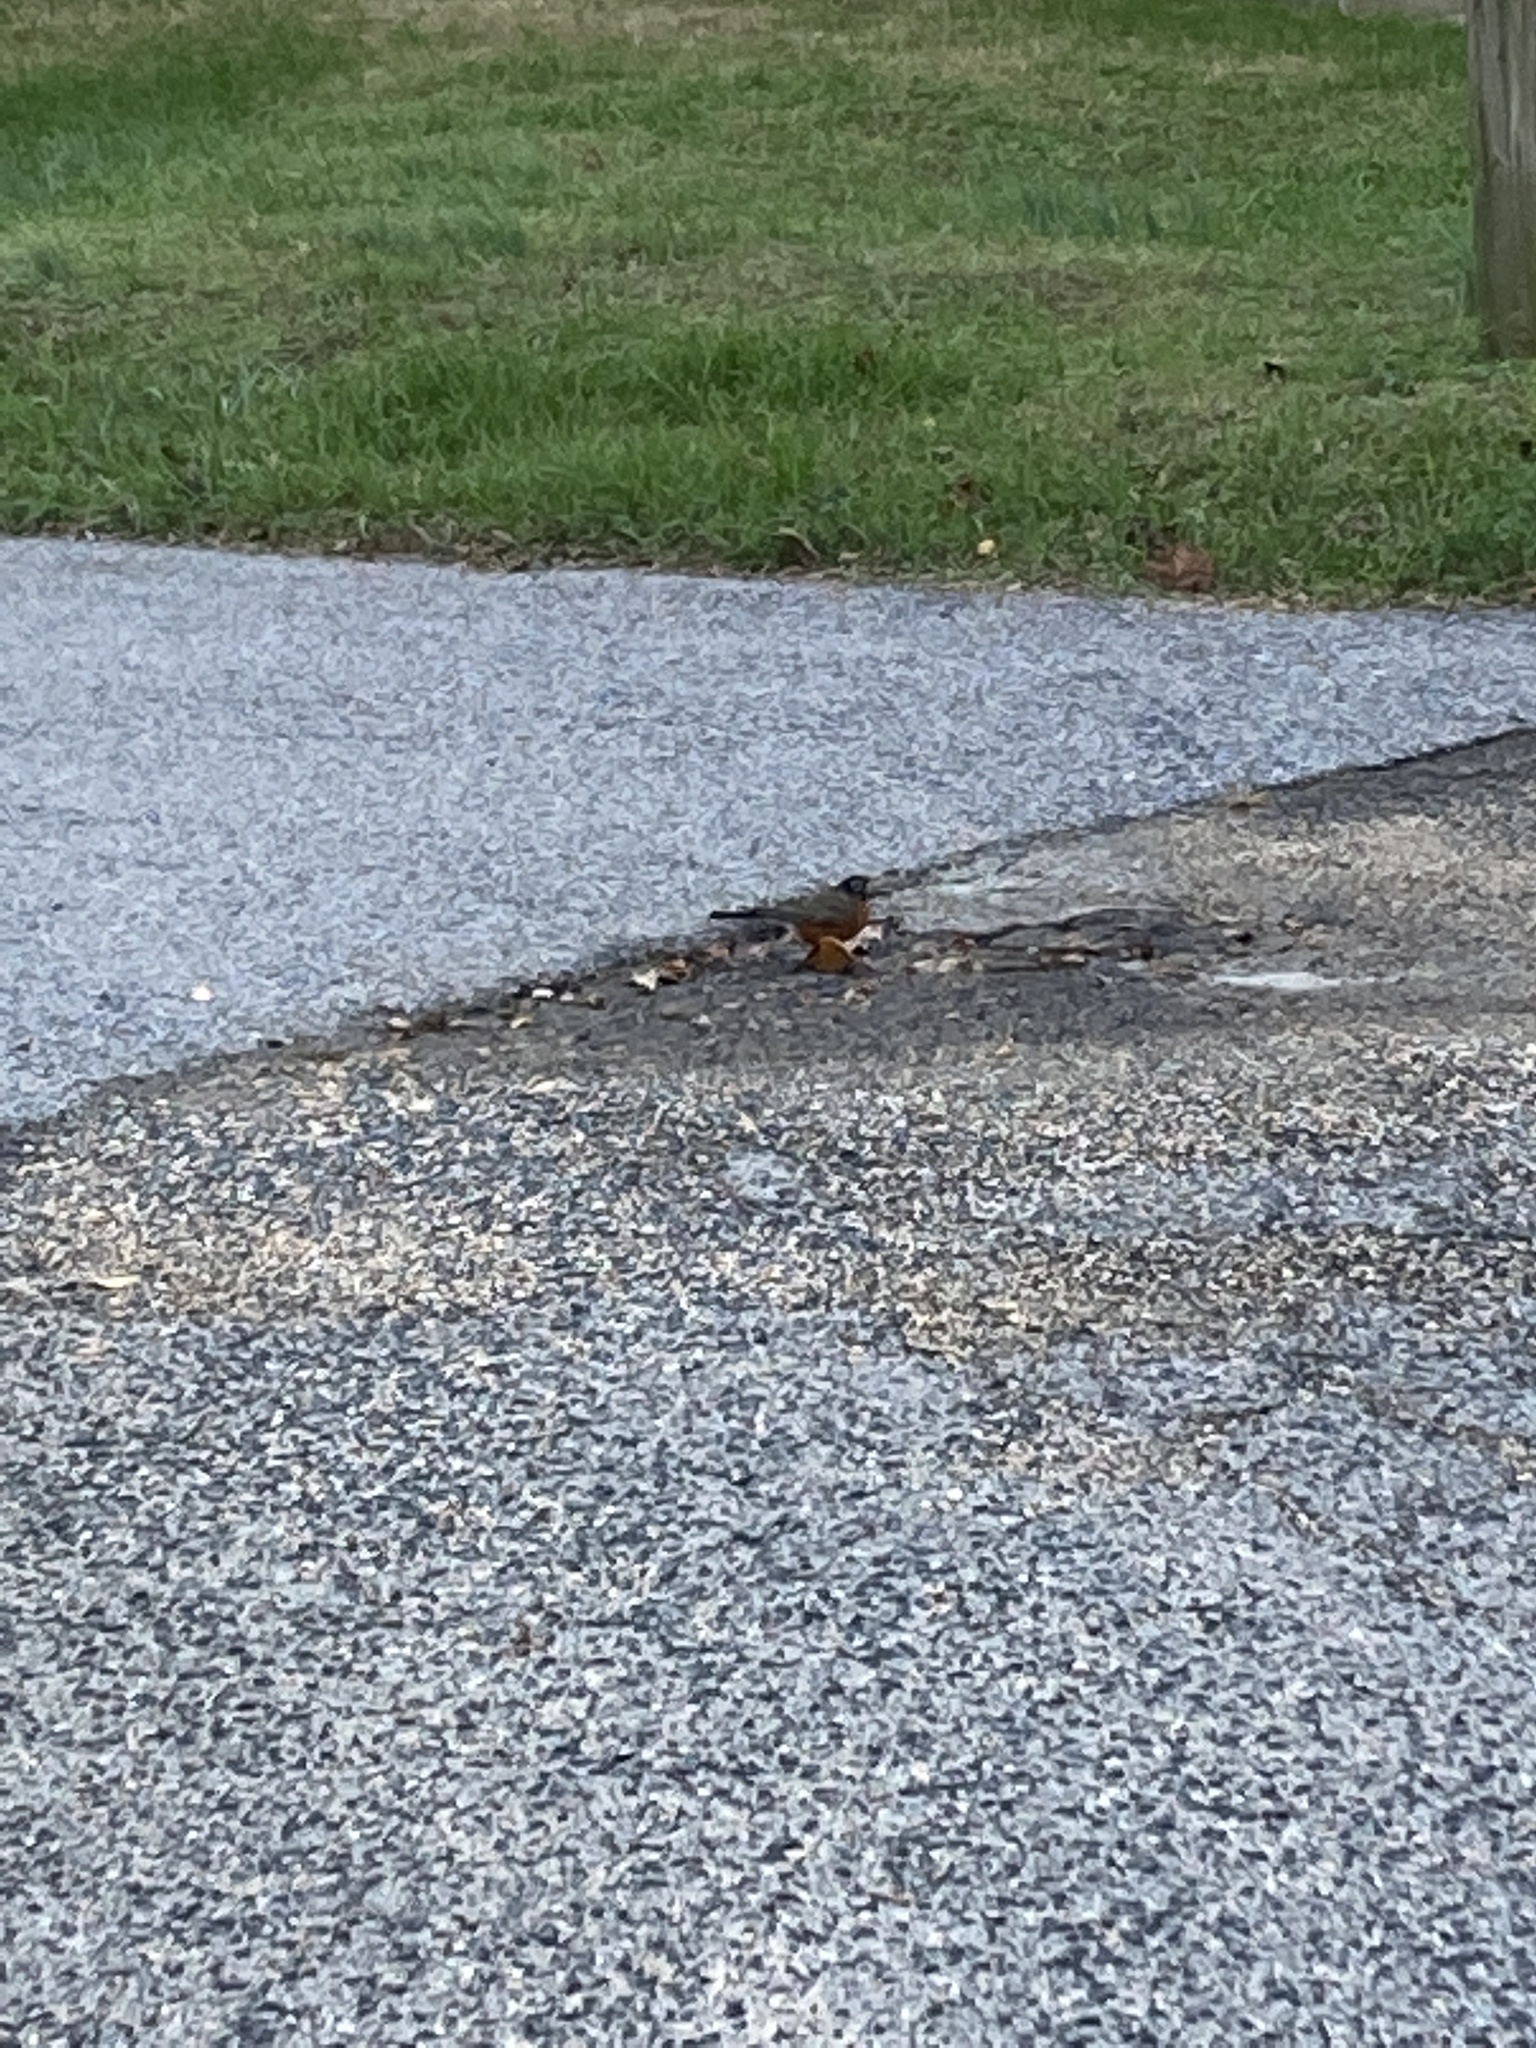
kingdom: Animalia
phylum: Chordata
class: Aves
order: Passeriformes
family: Turdidae
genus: Turdus
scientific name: Turdus migratorius
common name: American robin
